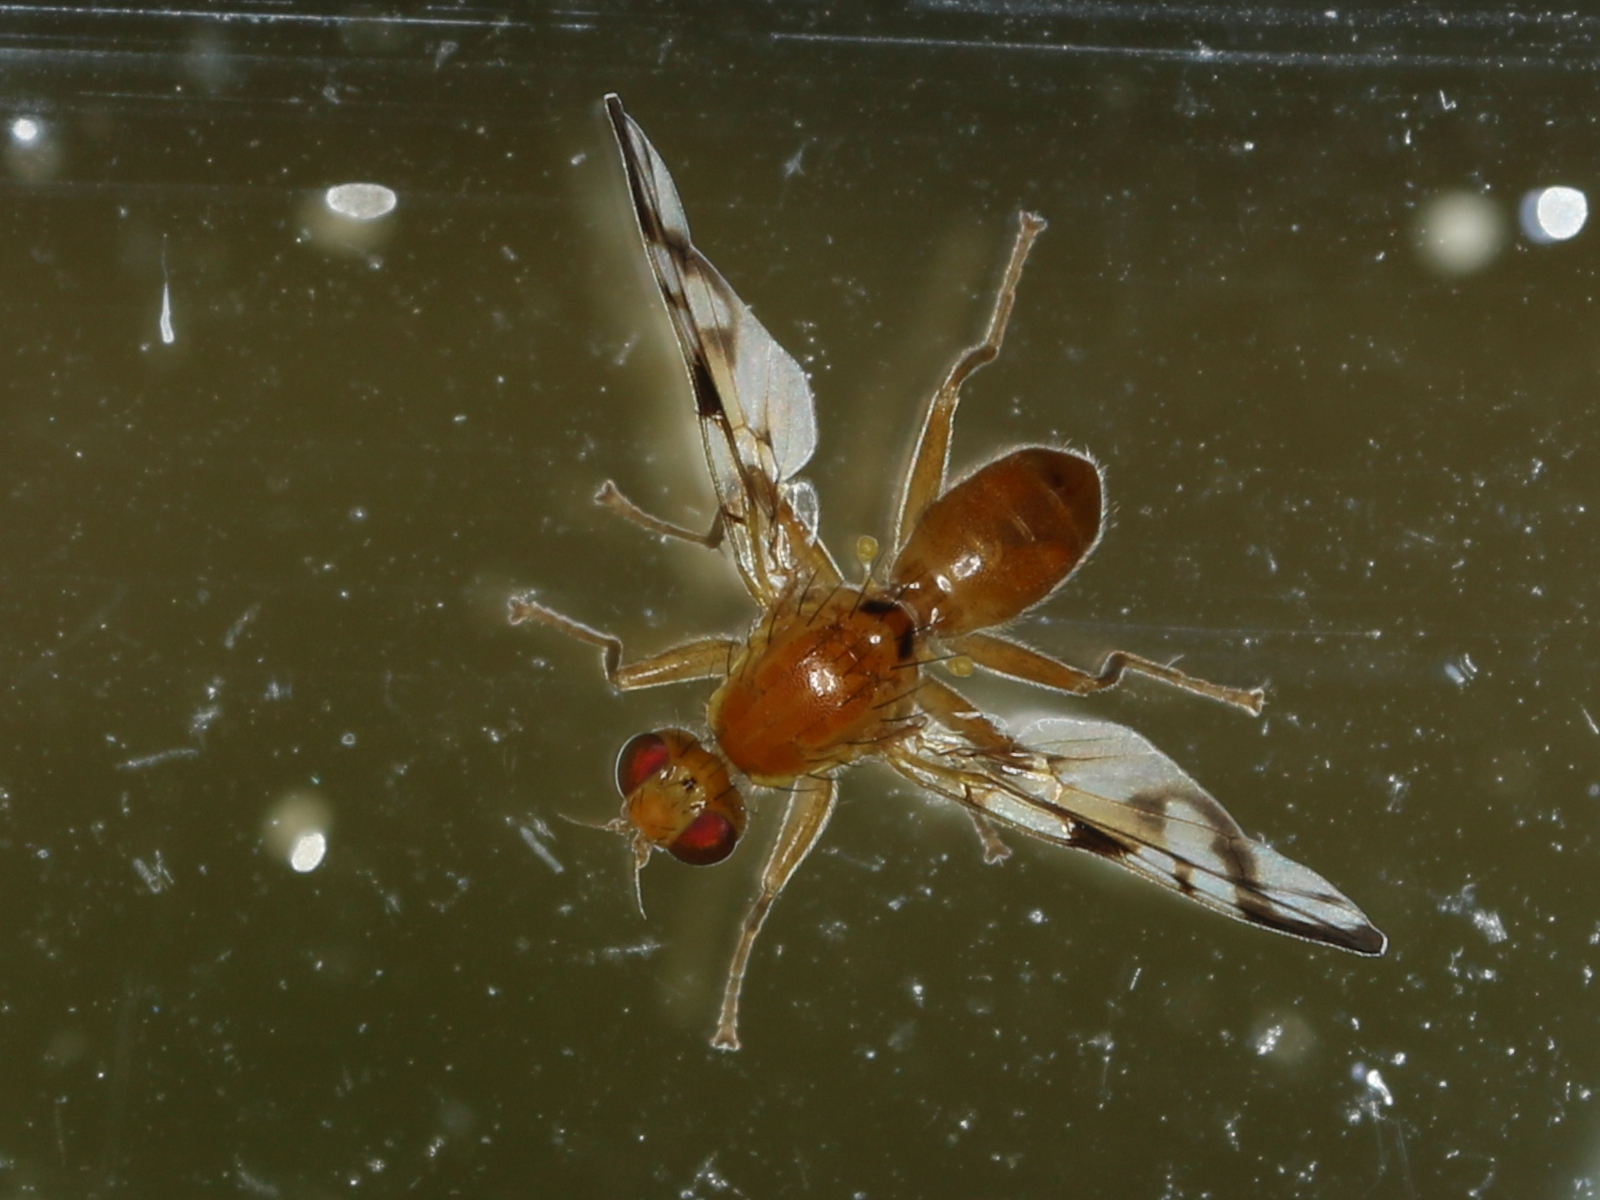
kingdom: Animalia
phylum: Arthropoda
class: Insecta
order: Diptera
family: Tephritidae
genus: Acidia
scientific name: Acidia cognata
